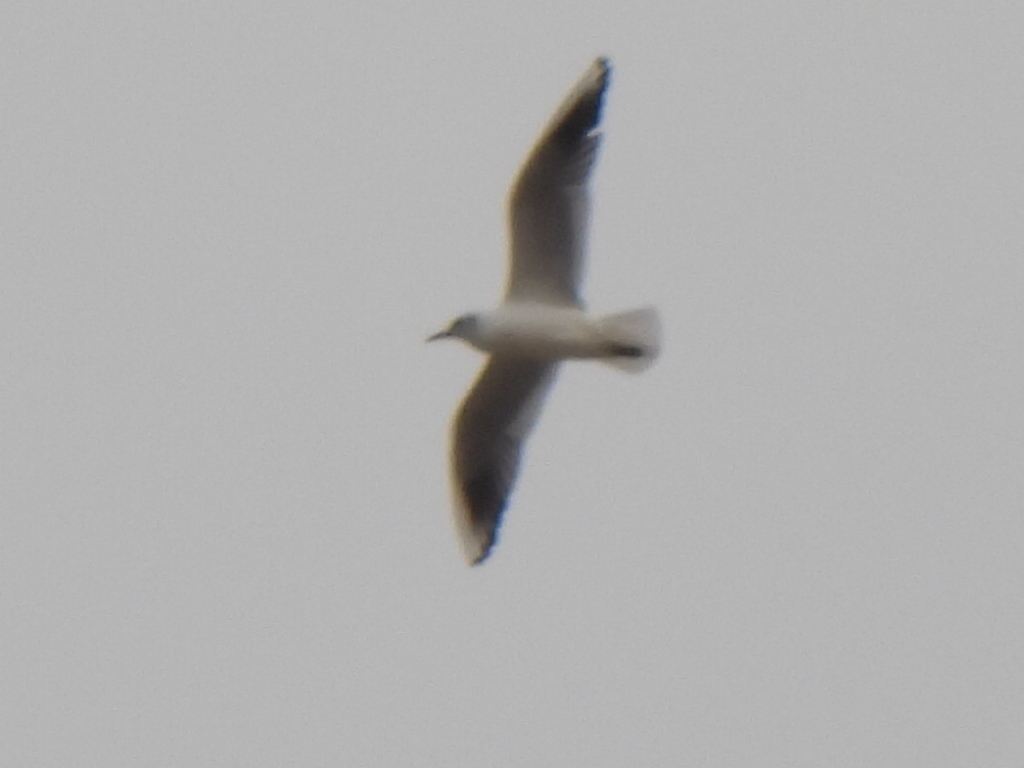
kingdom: Animalia
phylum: Chordata
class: Aves
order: Charadriiformes
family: Laridae
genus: Chroicocephalus
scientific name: Chroicocephalus ridibundus
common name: Black-headed gull
